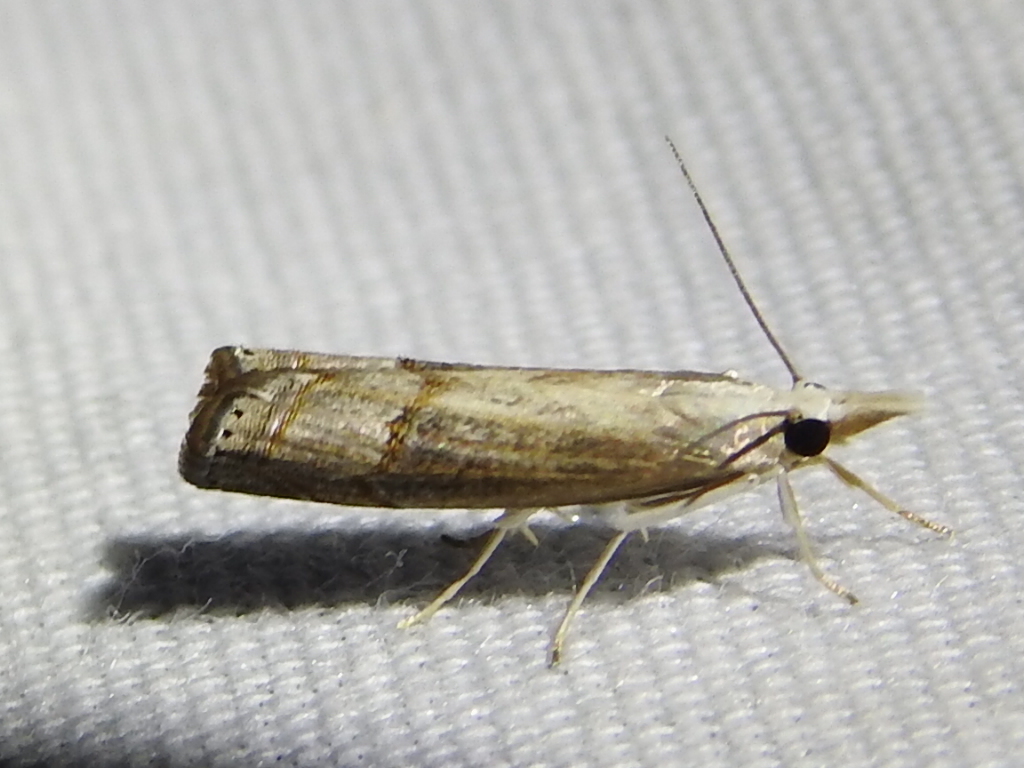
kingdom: Animalia
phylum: Arthropoda
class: Insecta
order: Lepidoptera
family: Crambidae
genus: Parapediasia
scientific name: Parapediasia teterellus
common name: Bluegrass webworm moth
